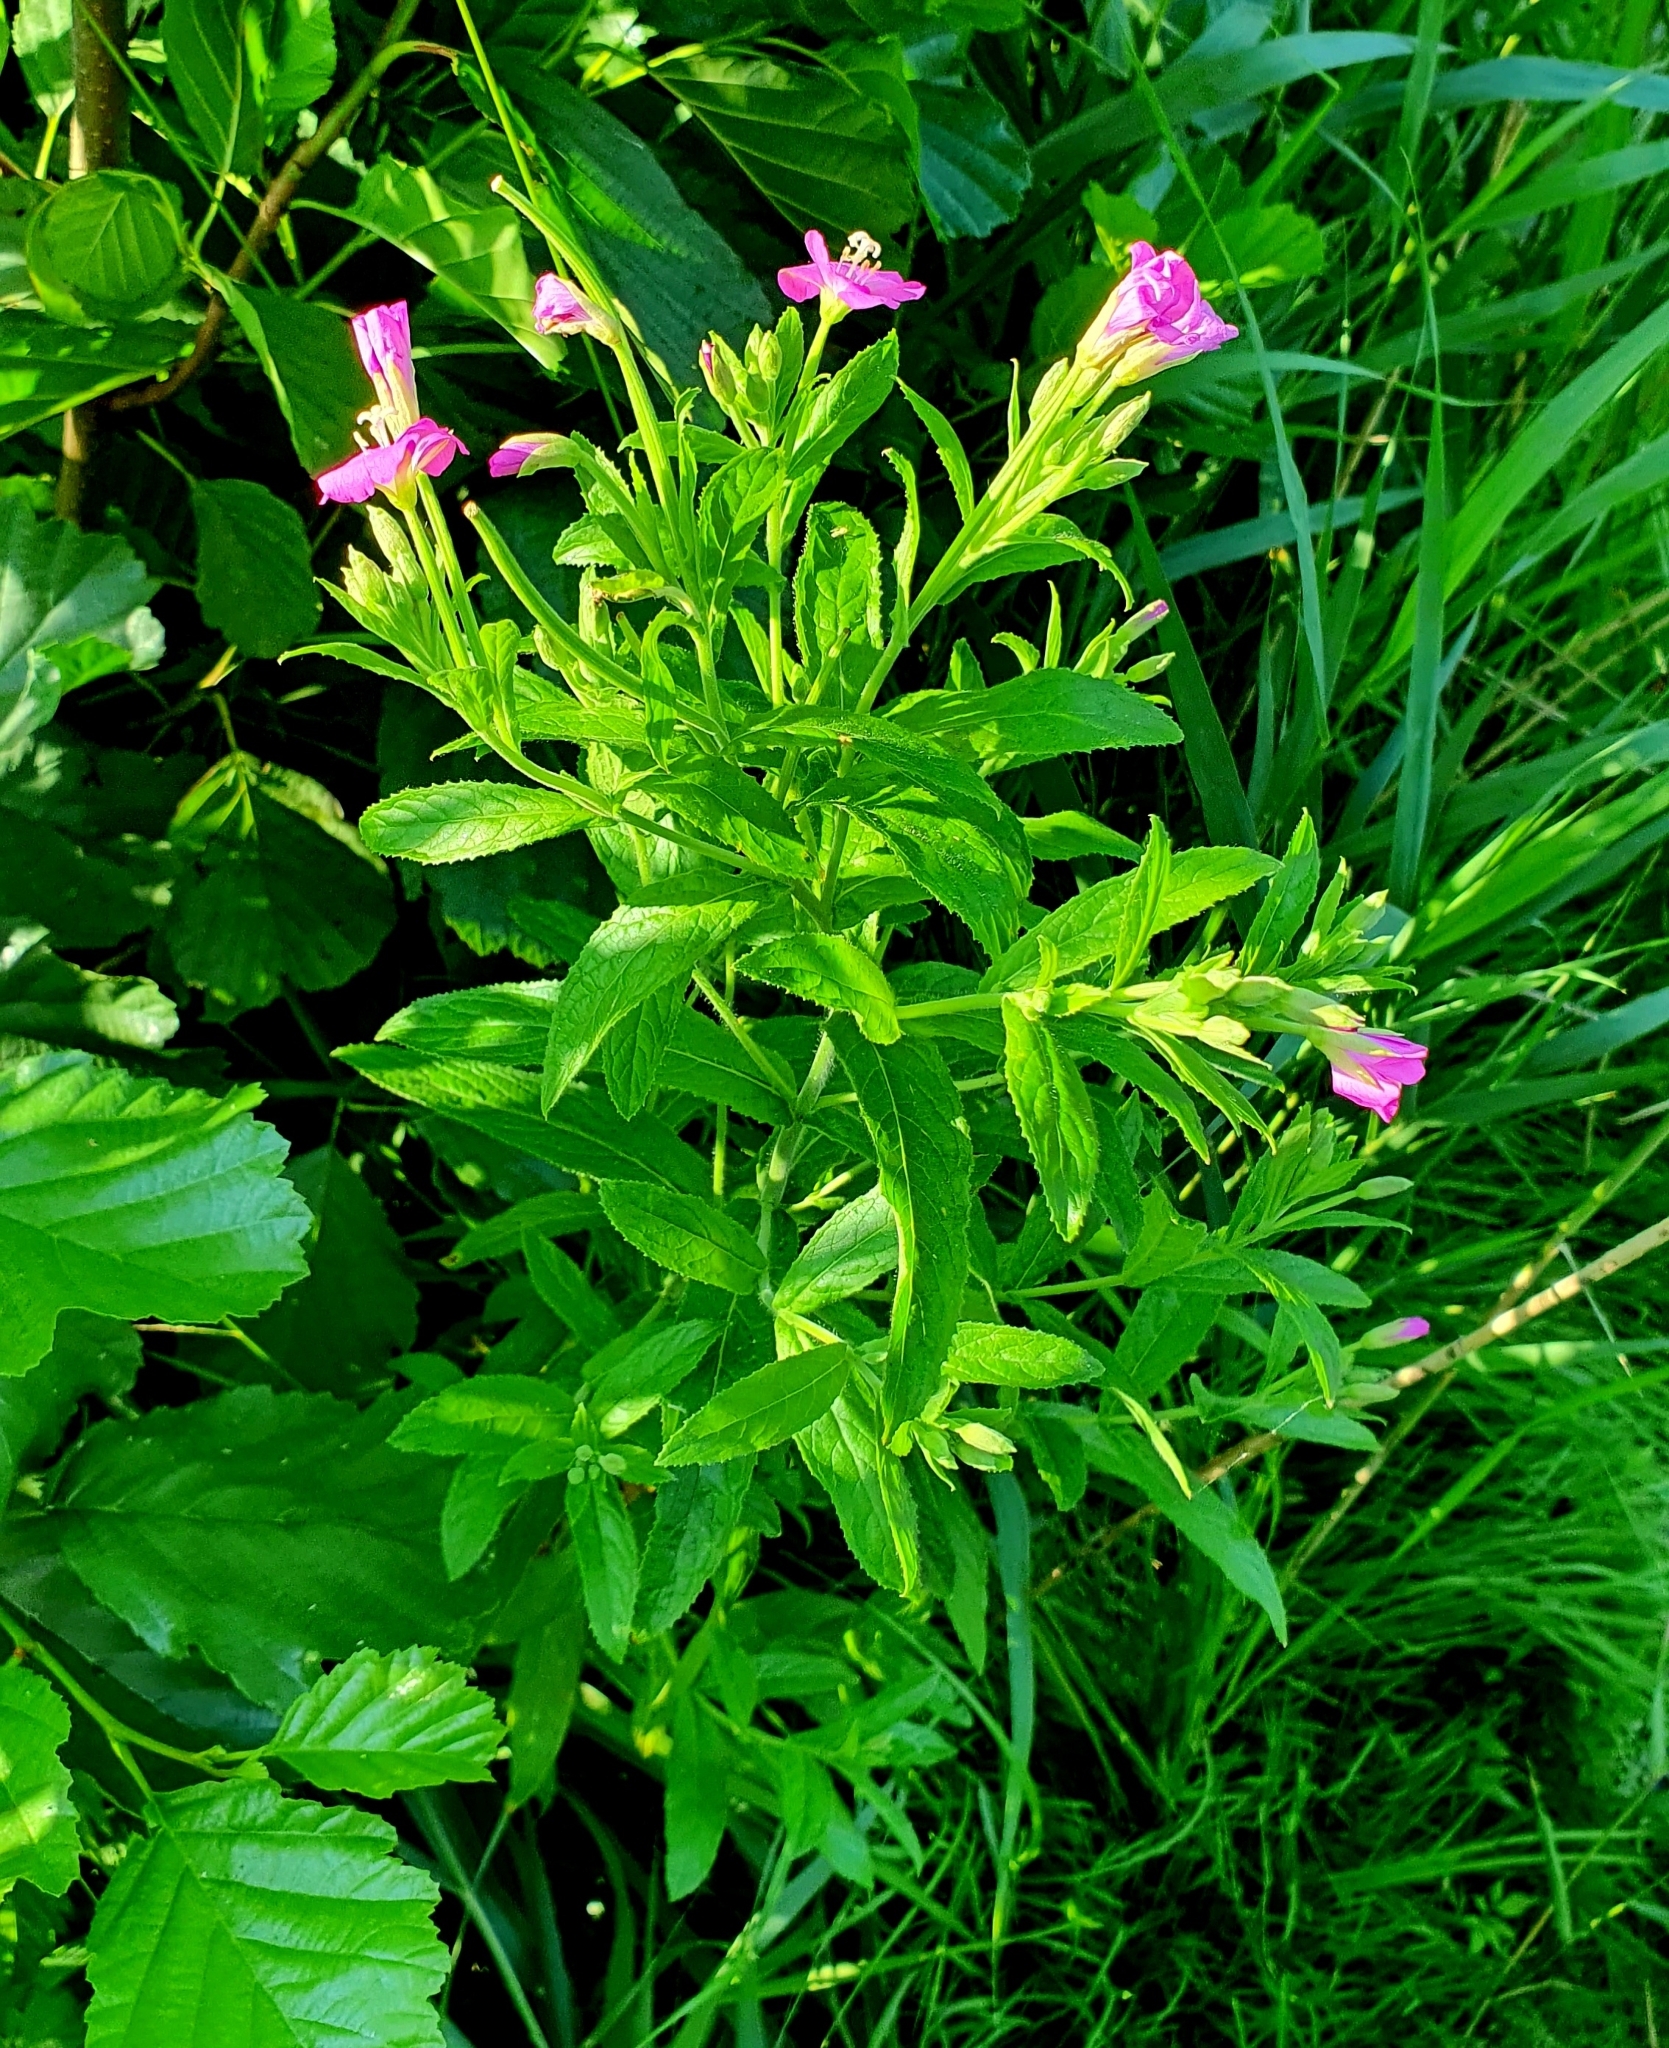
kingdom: Plantae
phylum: Tracheophyta
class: Magnoliopsida
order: Myrtales
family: Onagraceae
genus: Epilobium
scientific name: Epilobium hirsutum
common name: Great willowherb
